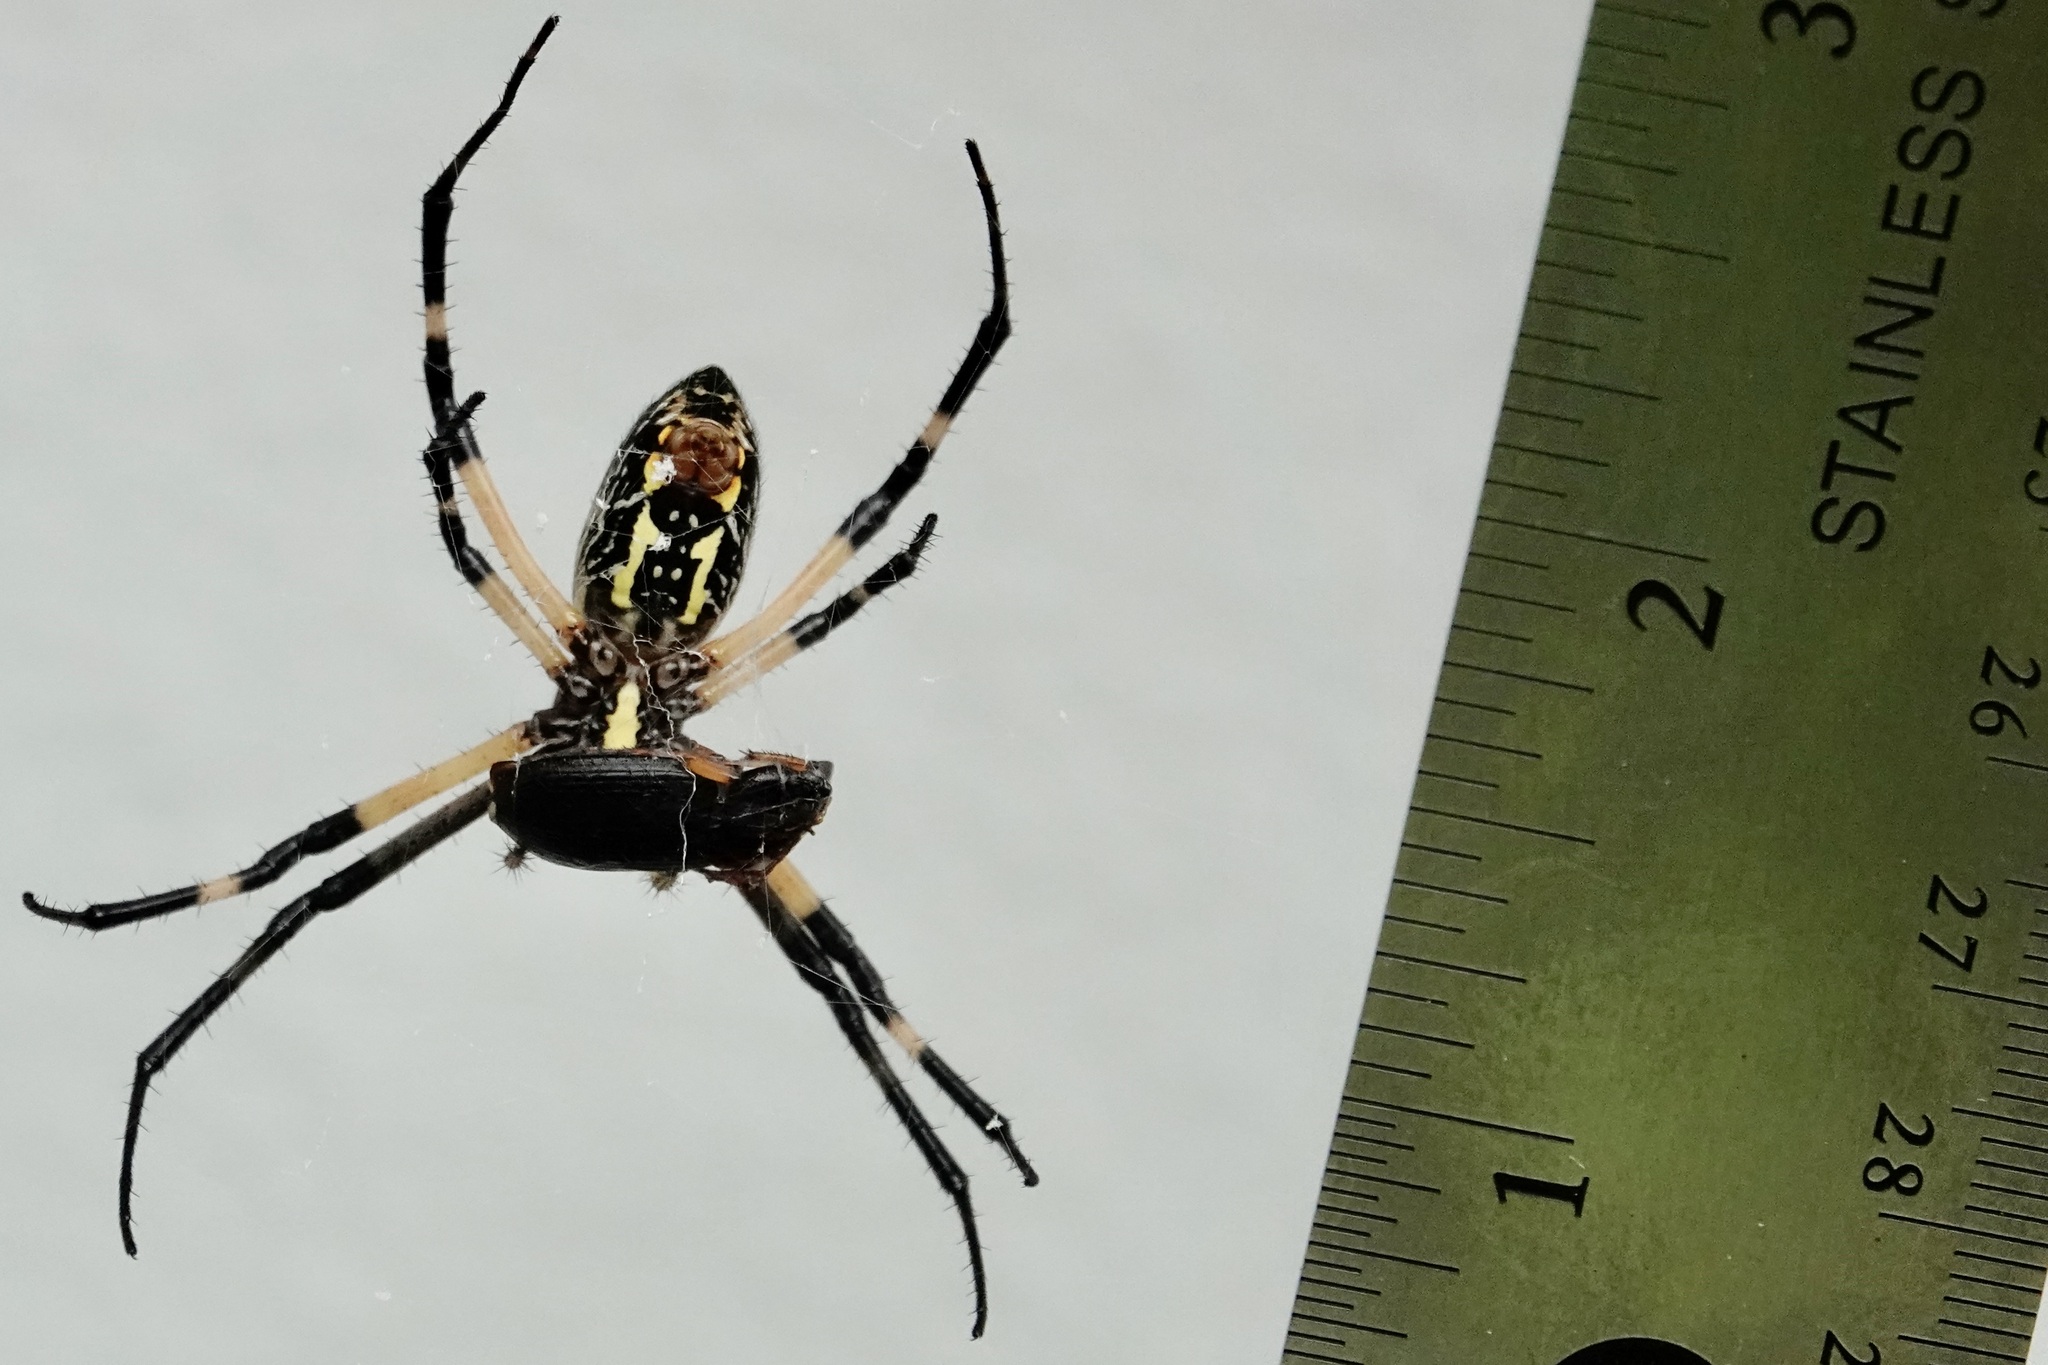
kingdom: Animalia
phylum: Arthropoda
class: Arachnida
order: Araneae
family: Araneidae
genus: Argiope
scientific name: Argiope aurantia
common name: Orb weavers
